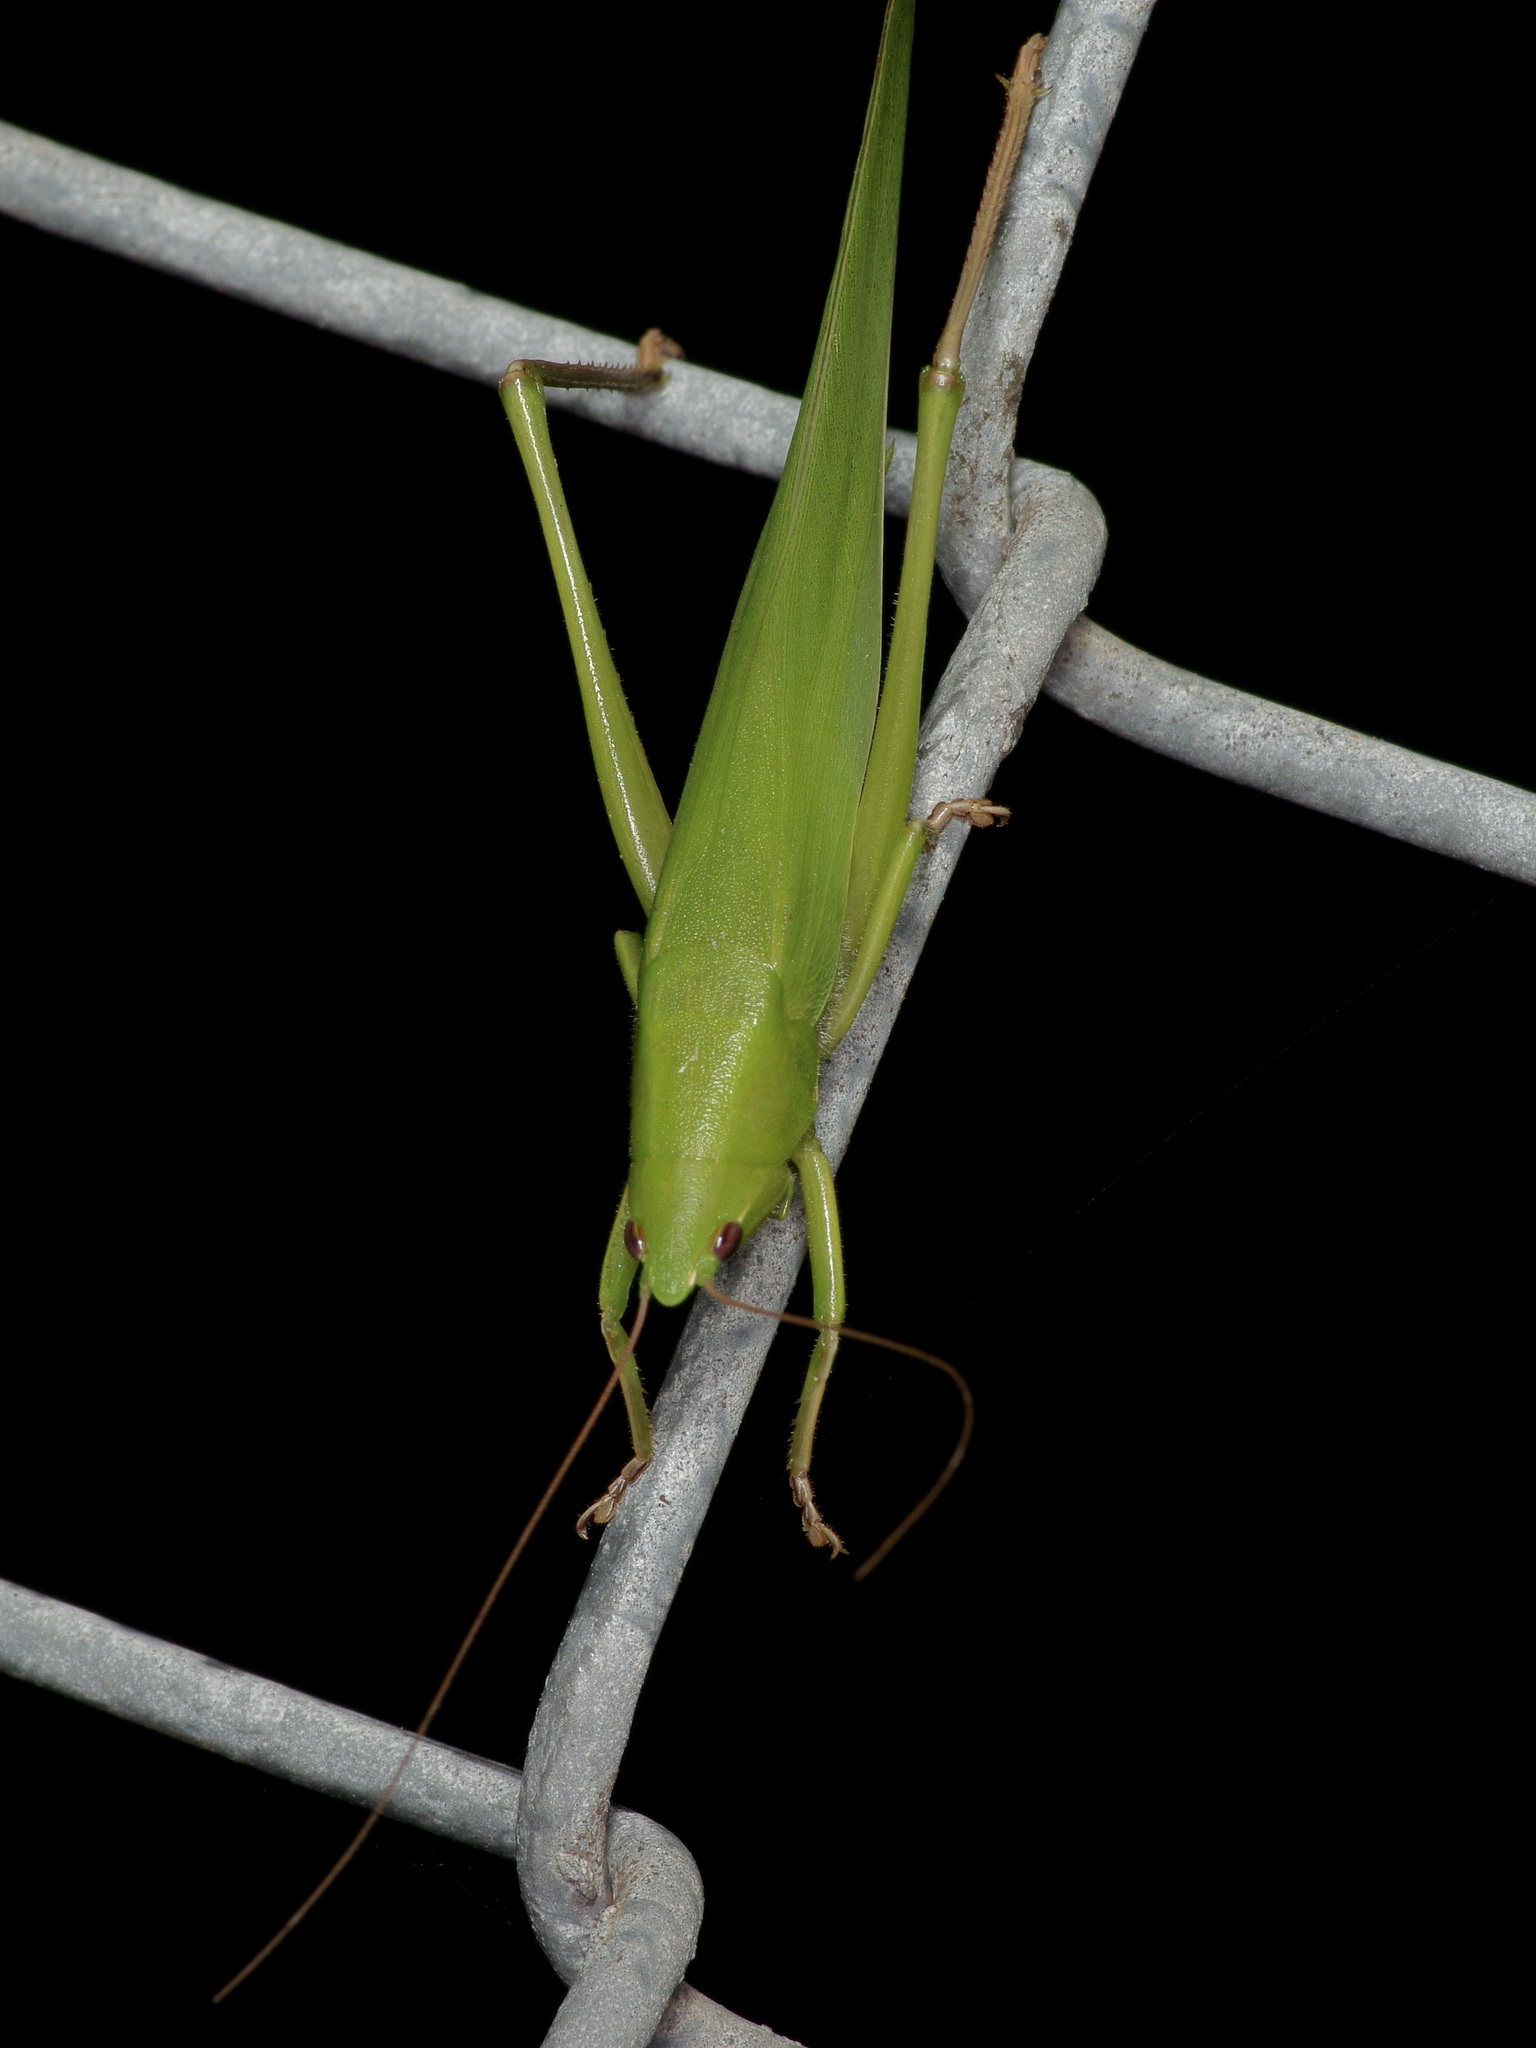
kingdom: Animalia
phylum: Arthropoda
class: Insecta
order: Orthoptera
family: Tettigoniidae
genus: Neoconocephalus
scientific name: Neoconocephalus triops
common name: Broad-tipped conehead
